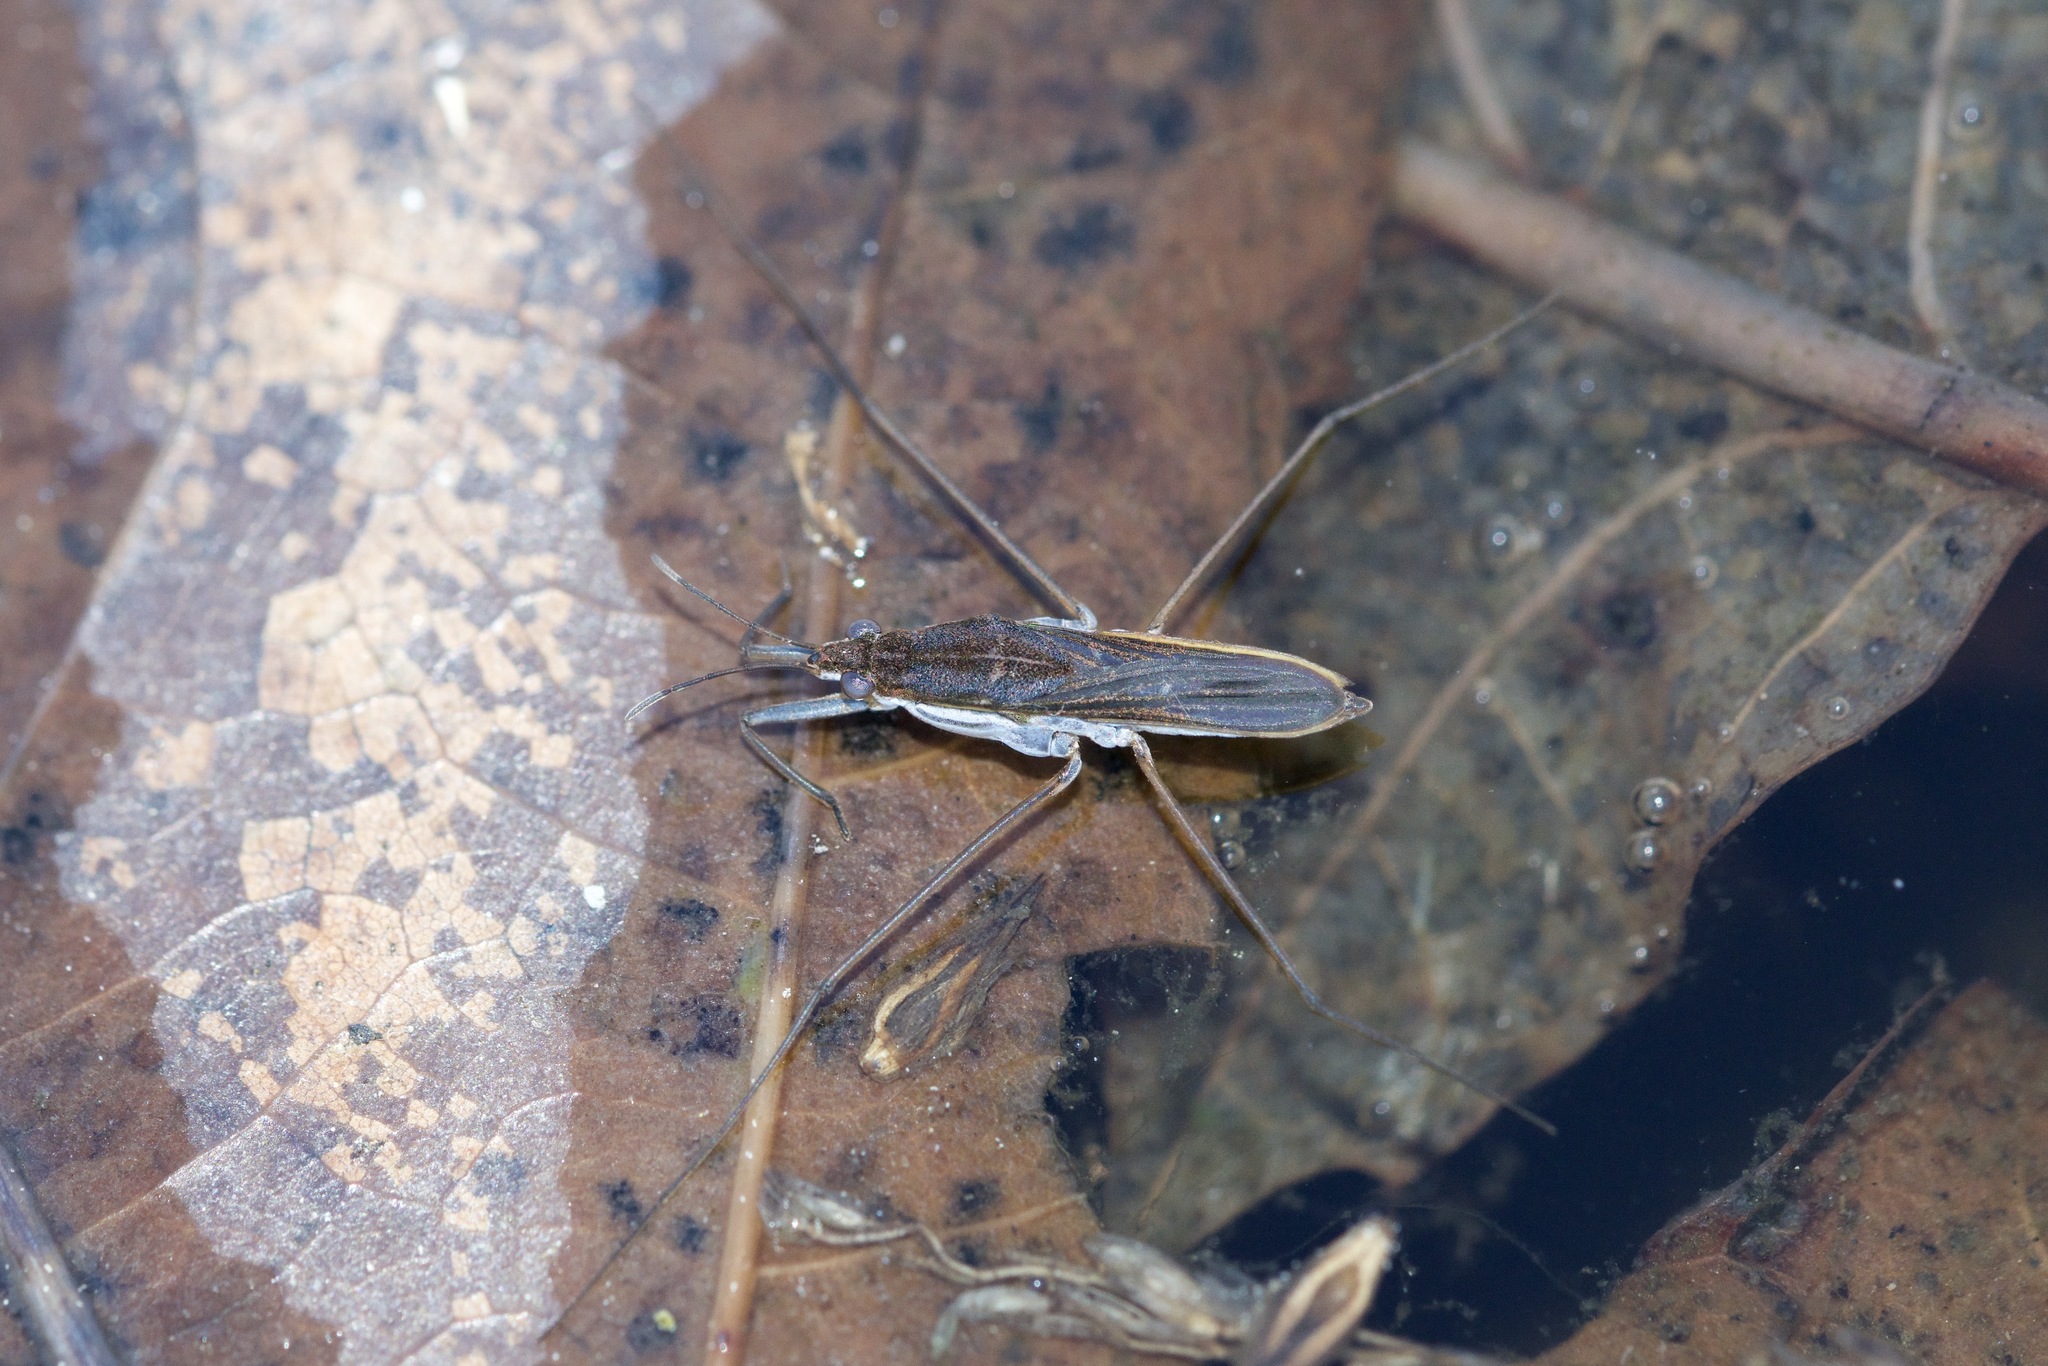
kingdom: Animalia
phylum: Arthropoda
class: Insecta
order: Hemiptera
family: Gerridae
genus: Gerris
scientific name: Gerris
